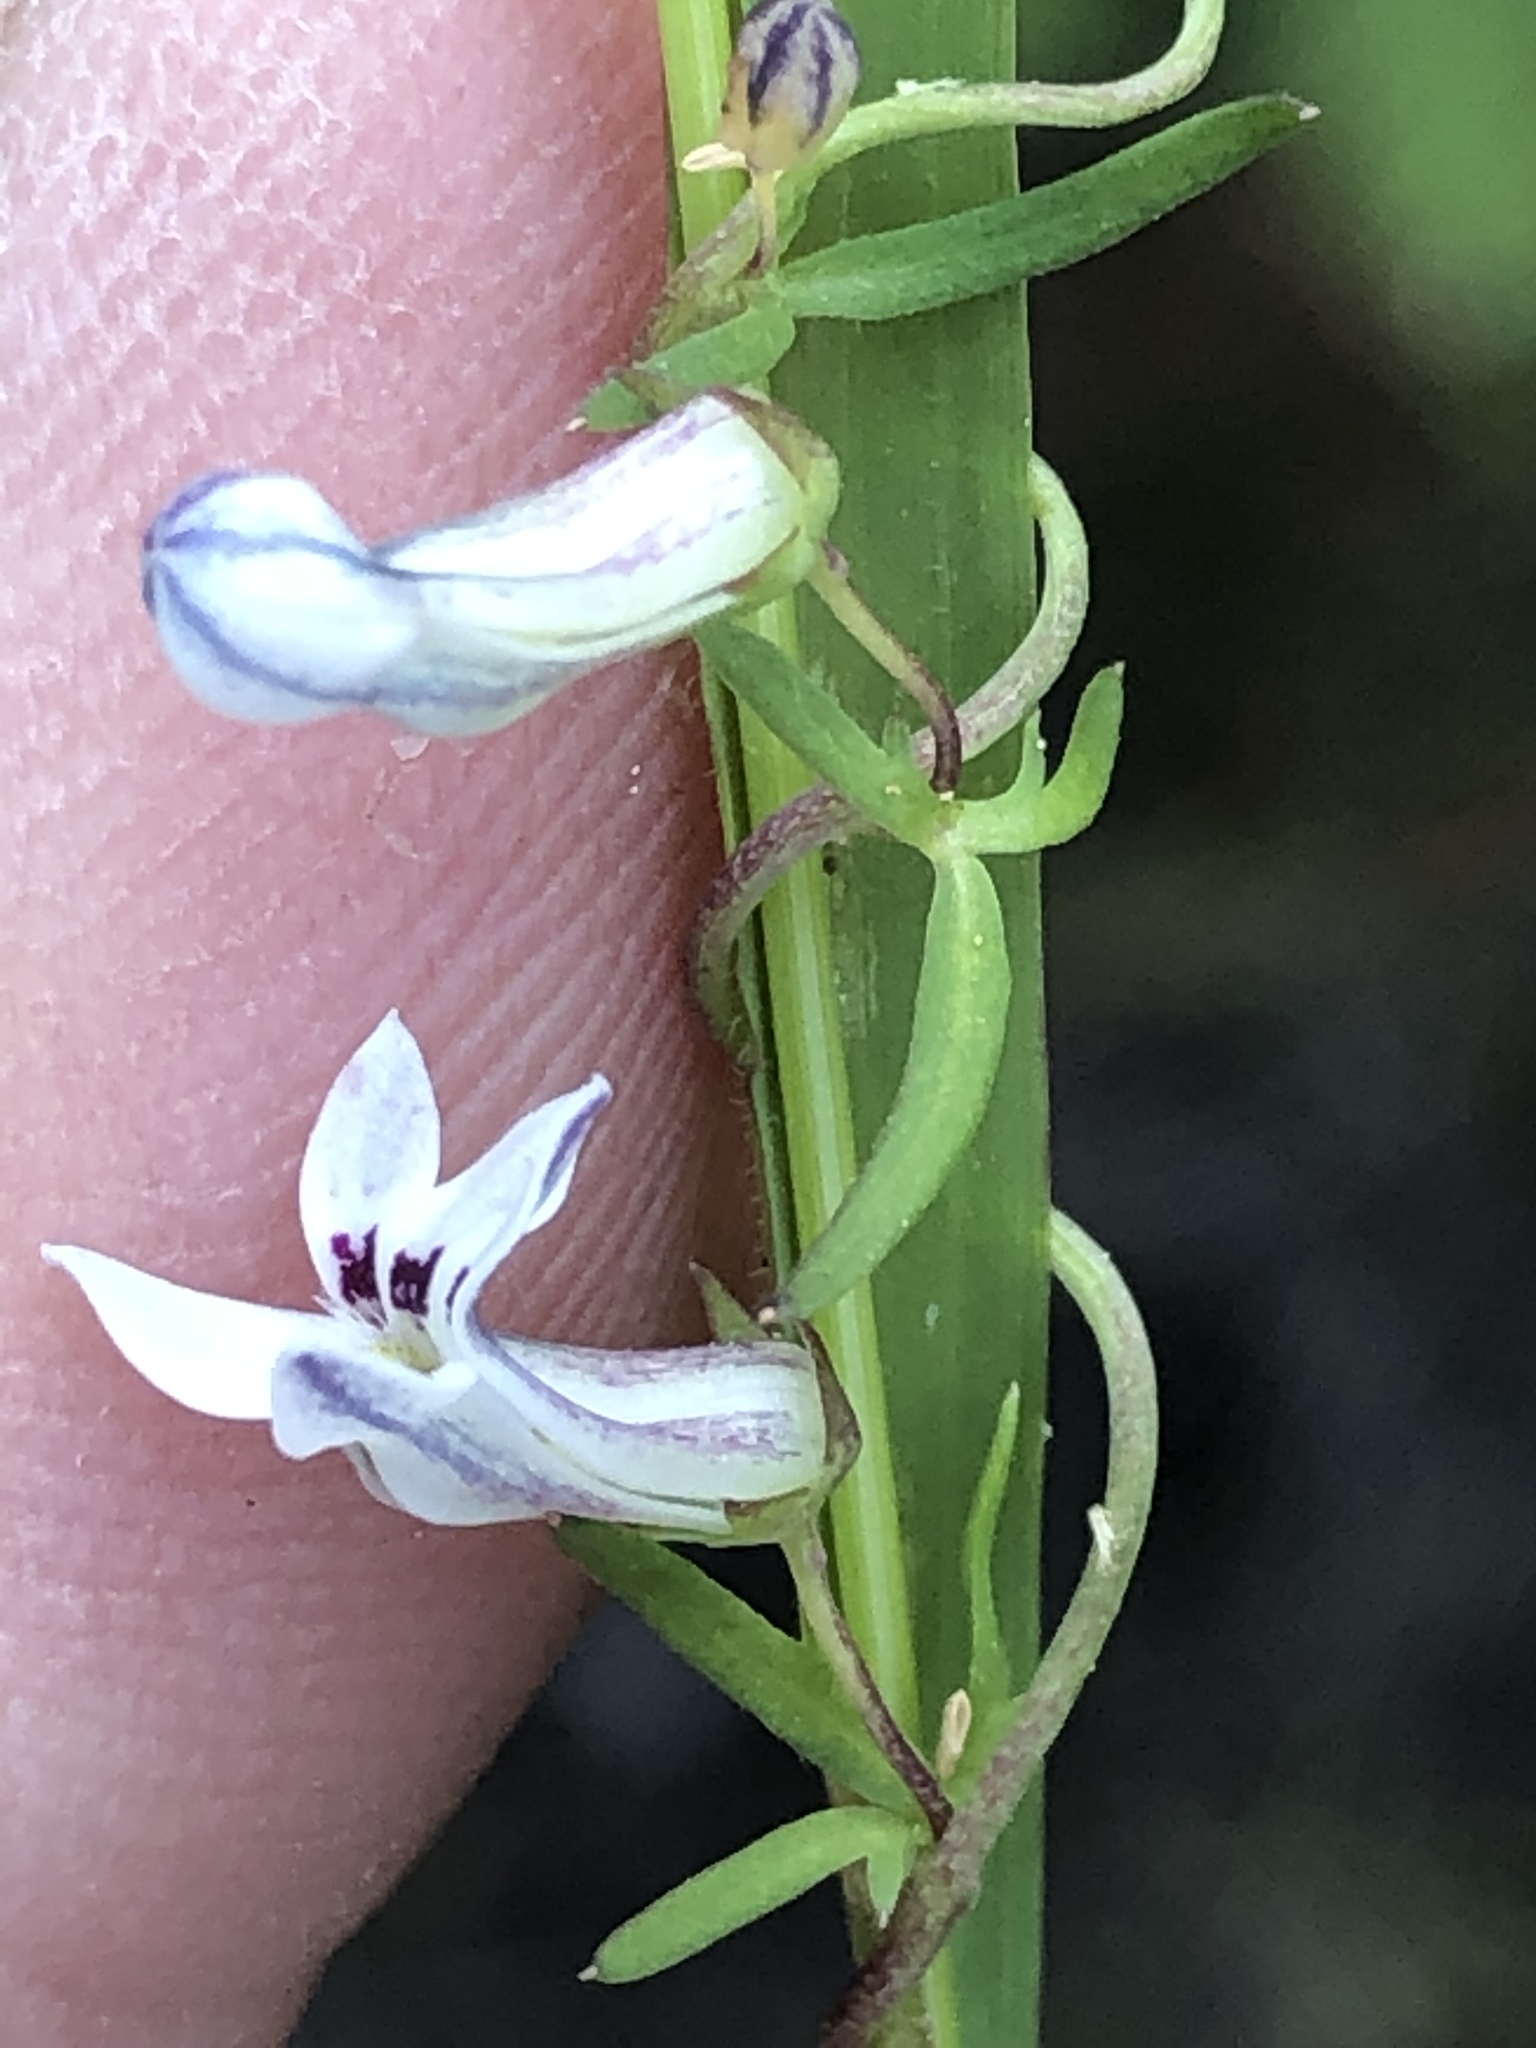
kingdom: Plantae
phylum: Tracheophyta
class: Magnoliopsida
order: Asterales
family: Campanulaceae
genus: Cyphia
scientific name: Cyphia digitata
